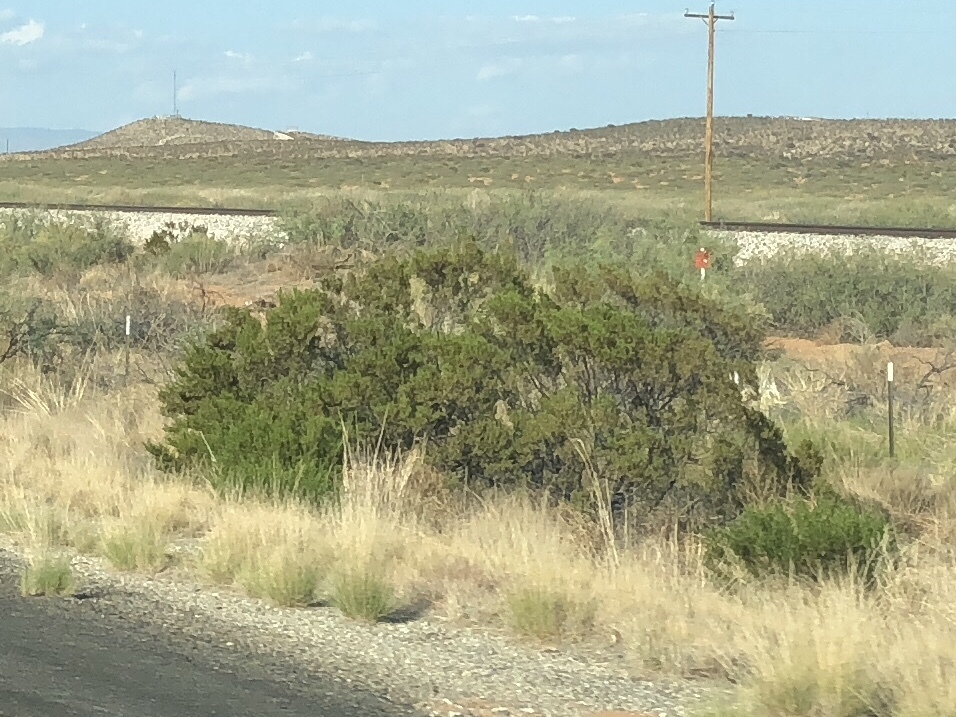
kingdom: Plantae
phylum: Tracheophyta
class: Magnoliopsida
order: Zygophyllales
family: Zygophyllaceae
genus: Larrea
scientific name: Larrea tridentata
